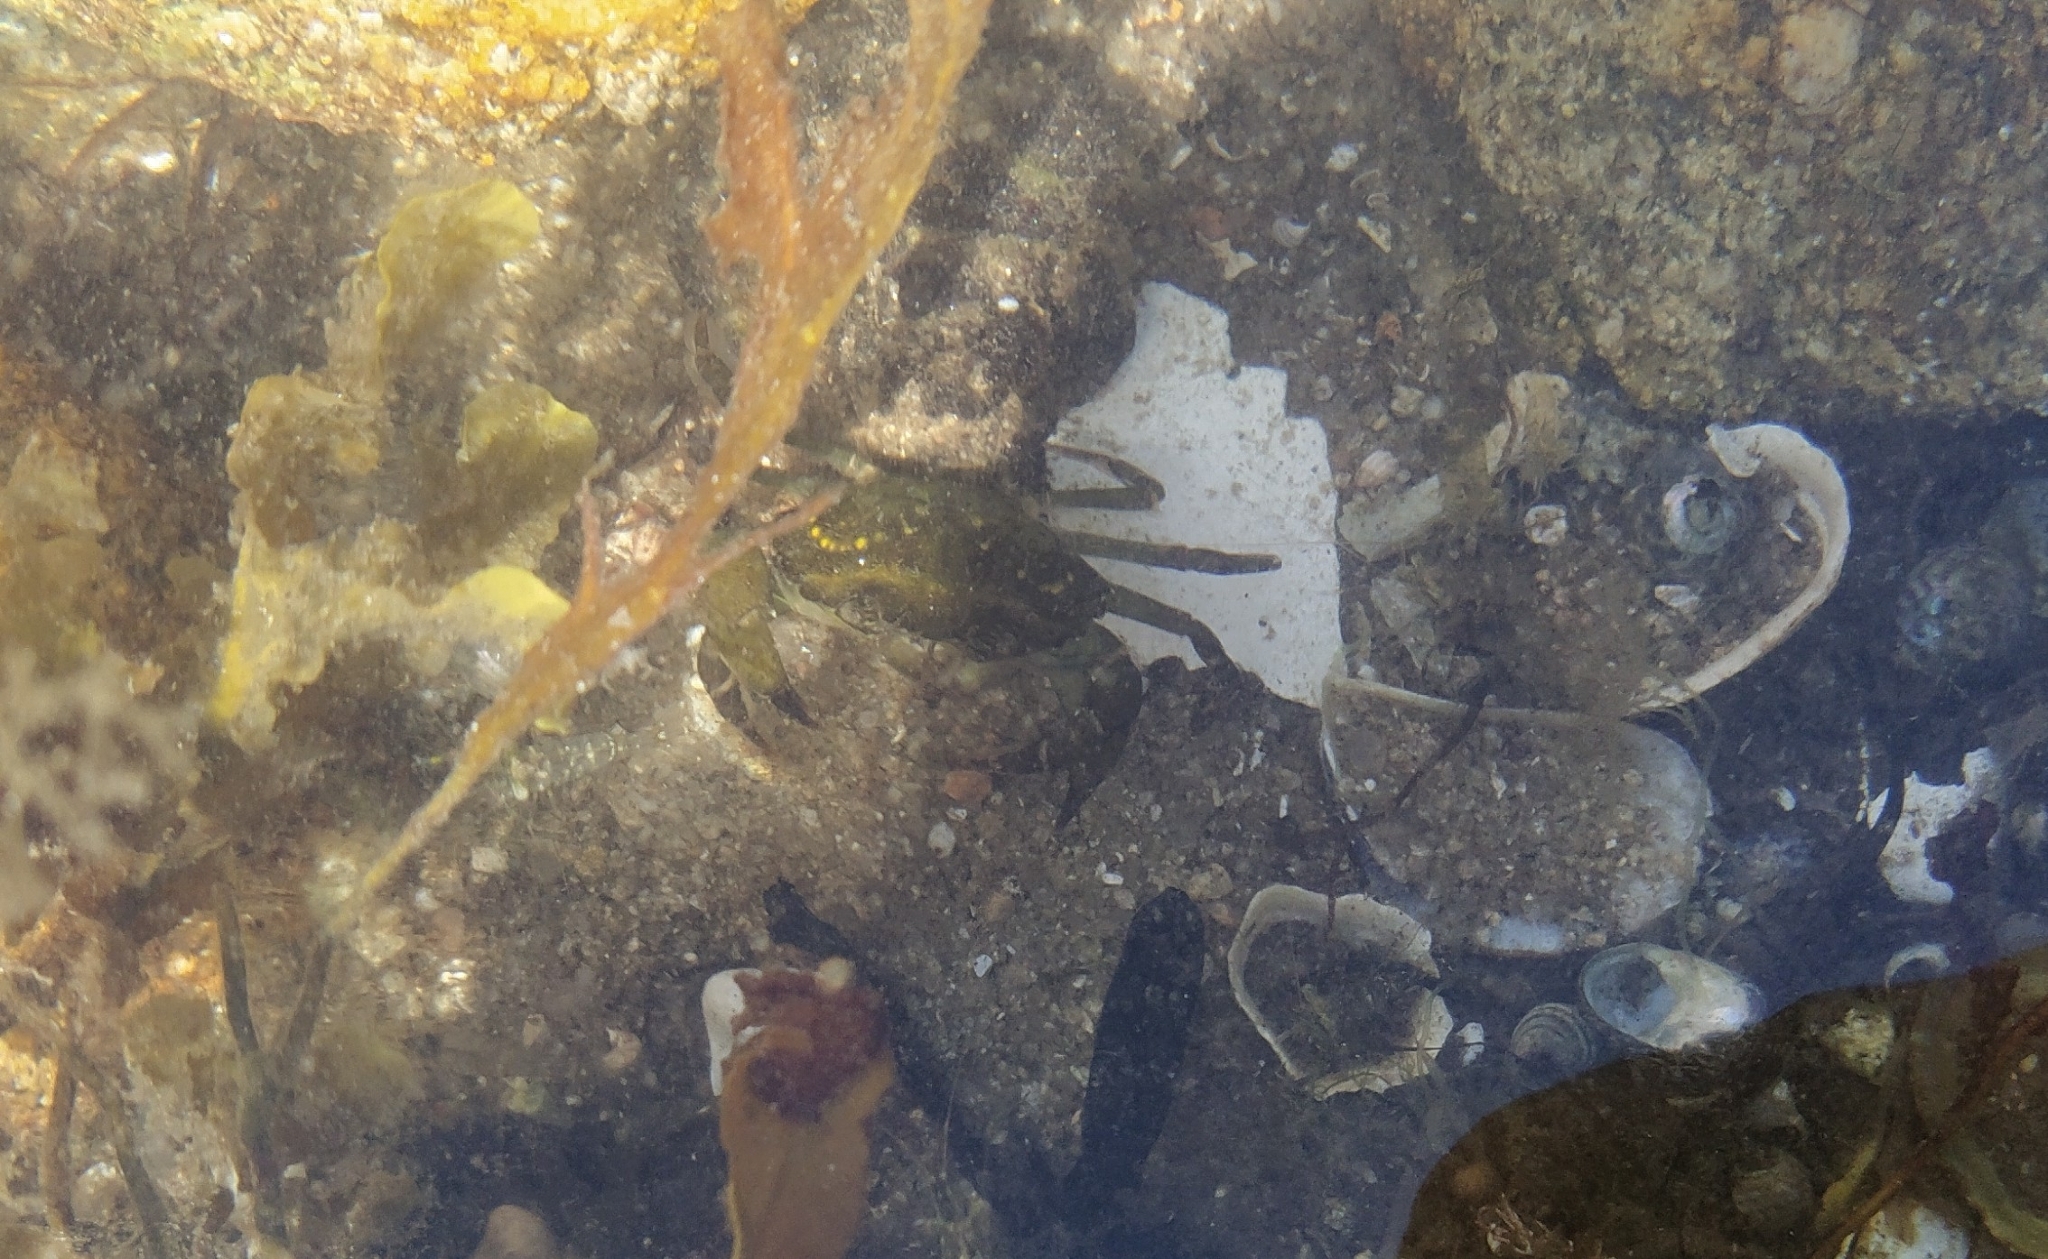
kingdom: Animalia
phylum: Arthropoda
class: Malacostraca
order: Decapoda
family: Carcinidae
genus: Carcinus
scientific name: Carcinus maenas
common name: European green crab
